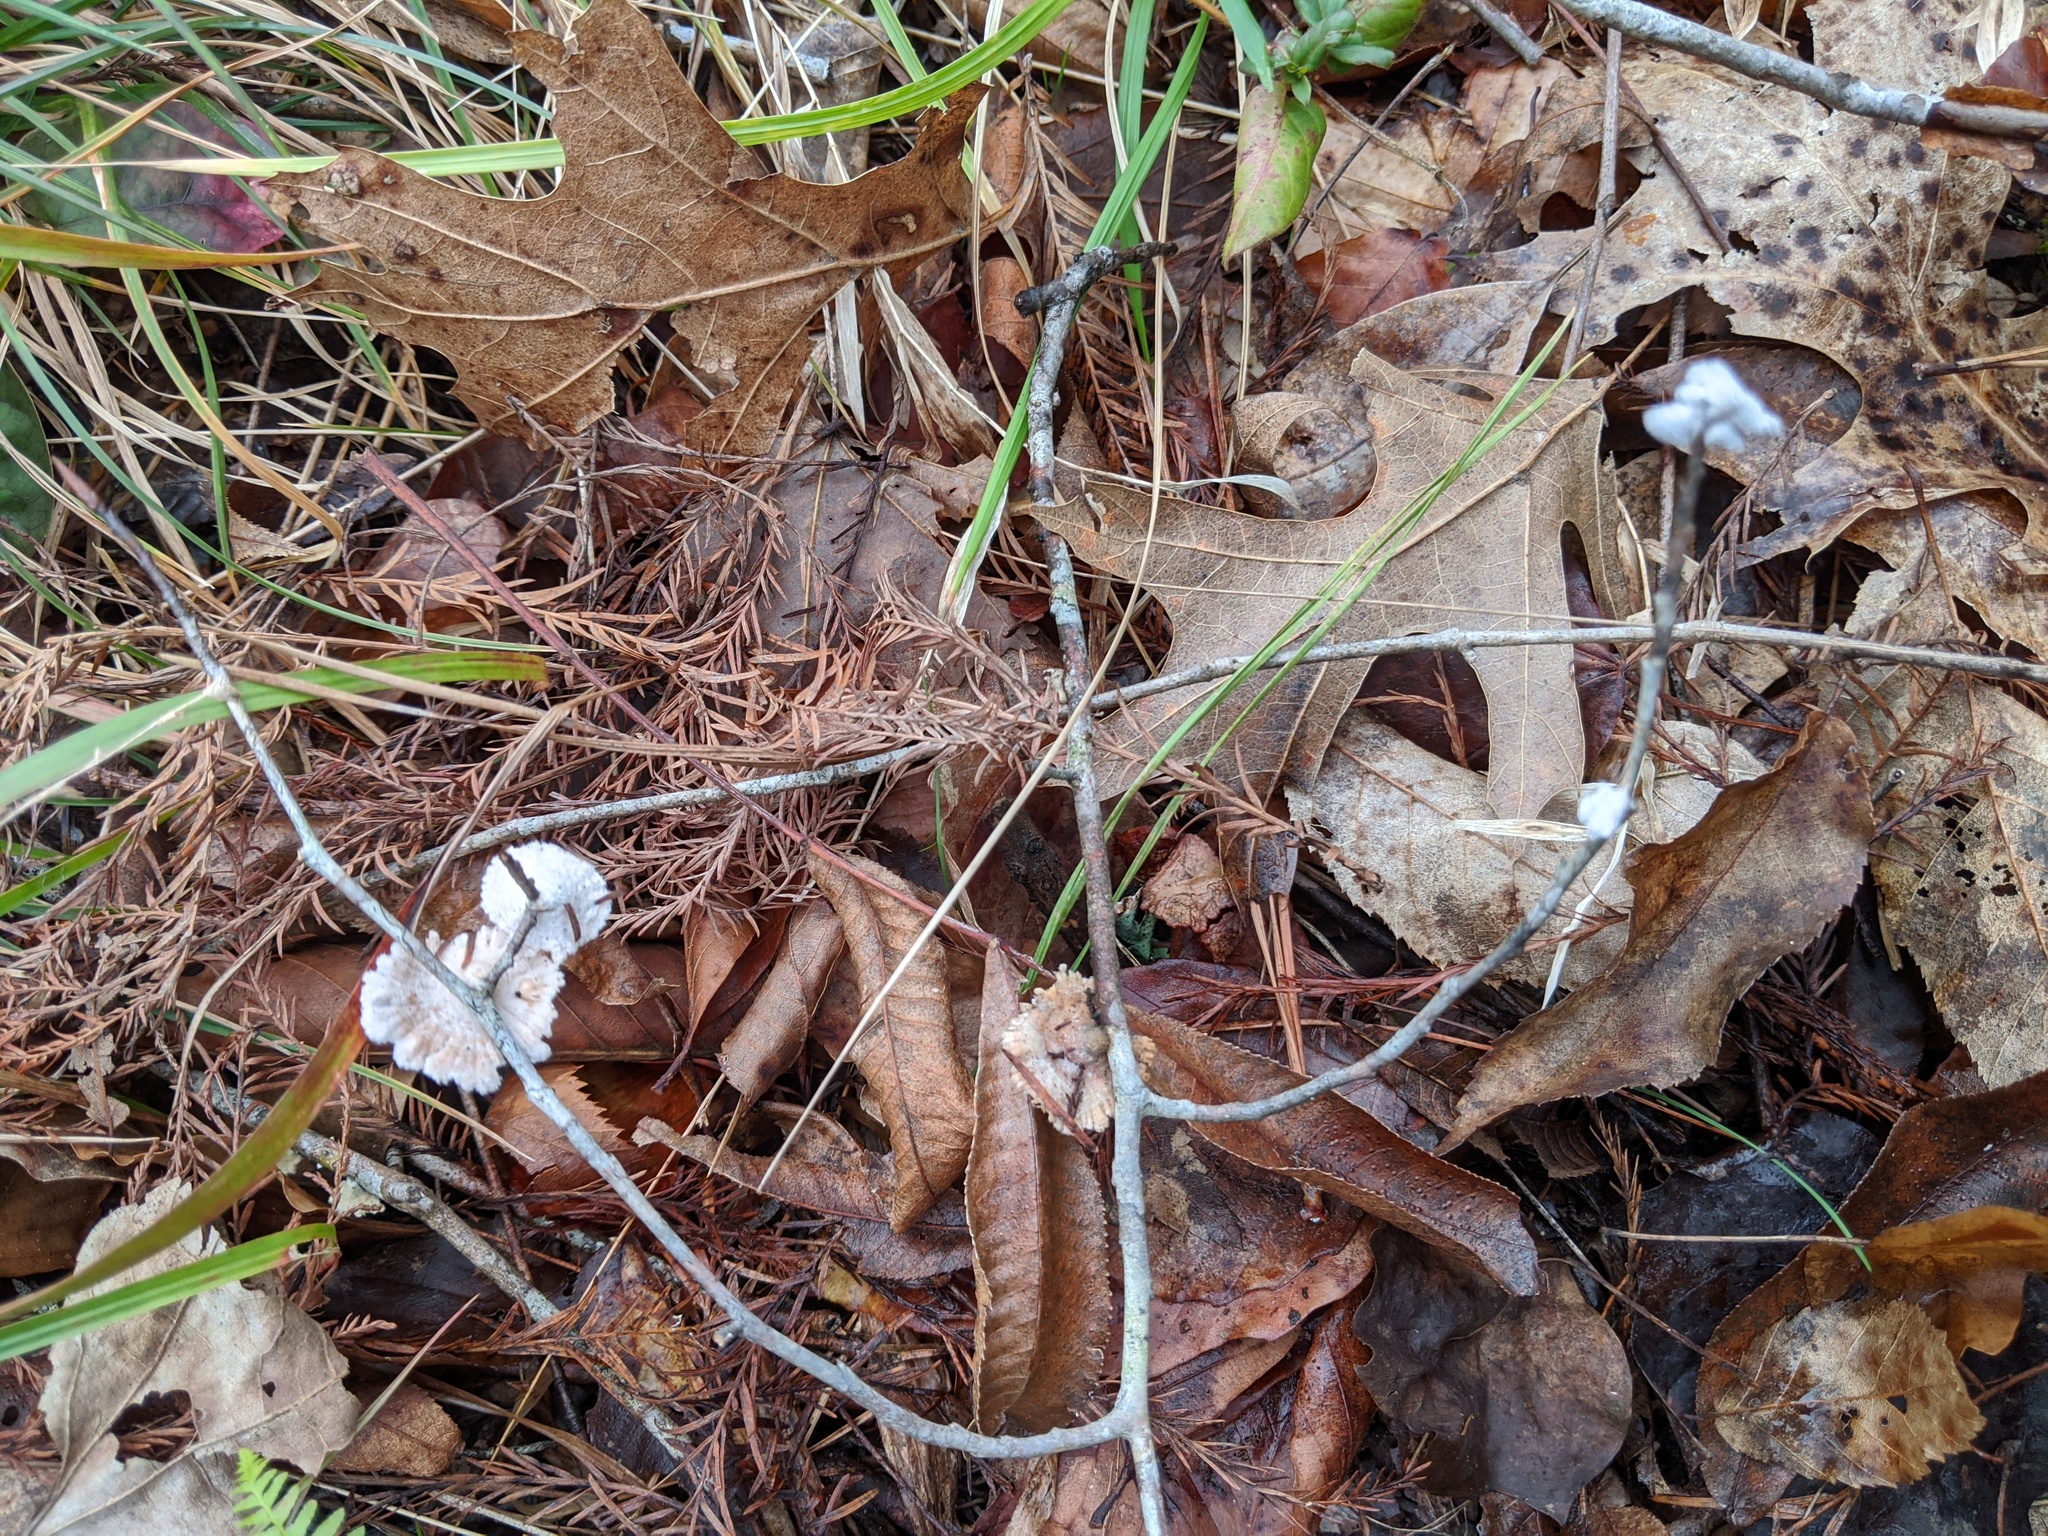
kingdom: Fungi
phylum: Basidiomycota
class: Agaricomycetes
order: Agaricales
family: Schizophyllaceae
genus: Schizophyllum
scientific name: Schizophyllum commune
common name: Common porecrust
